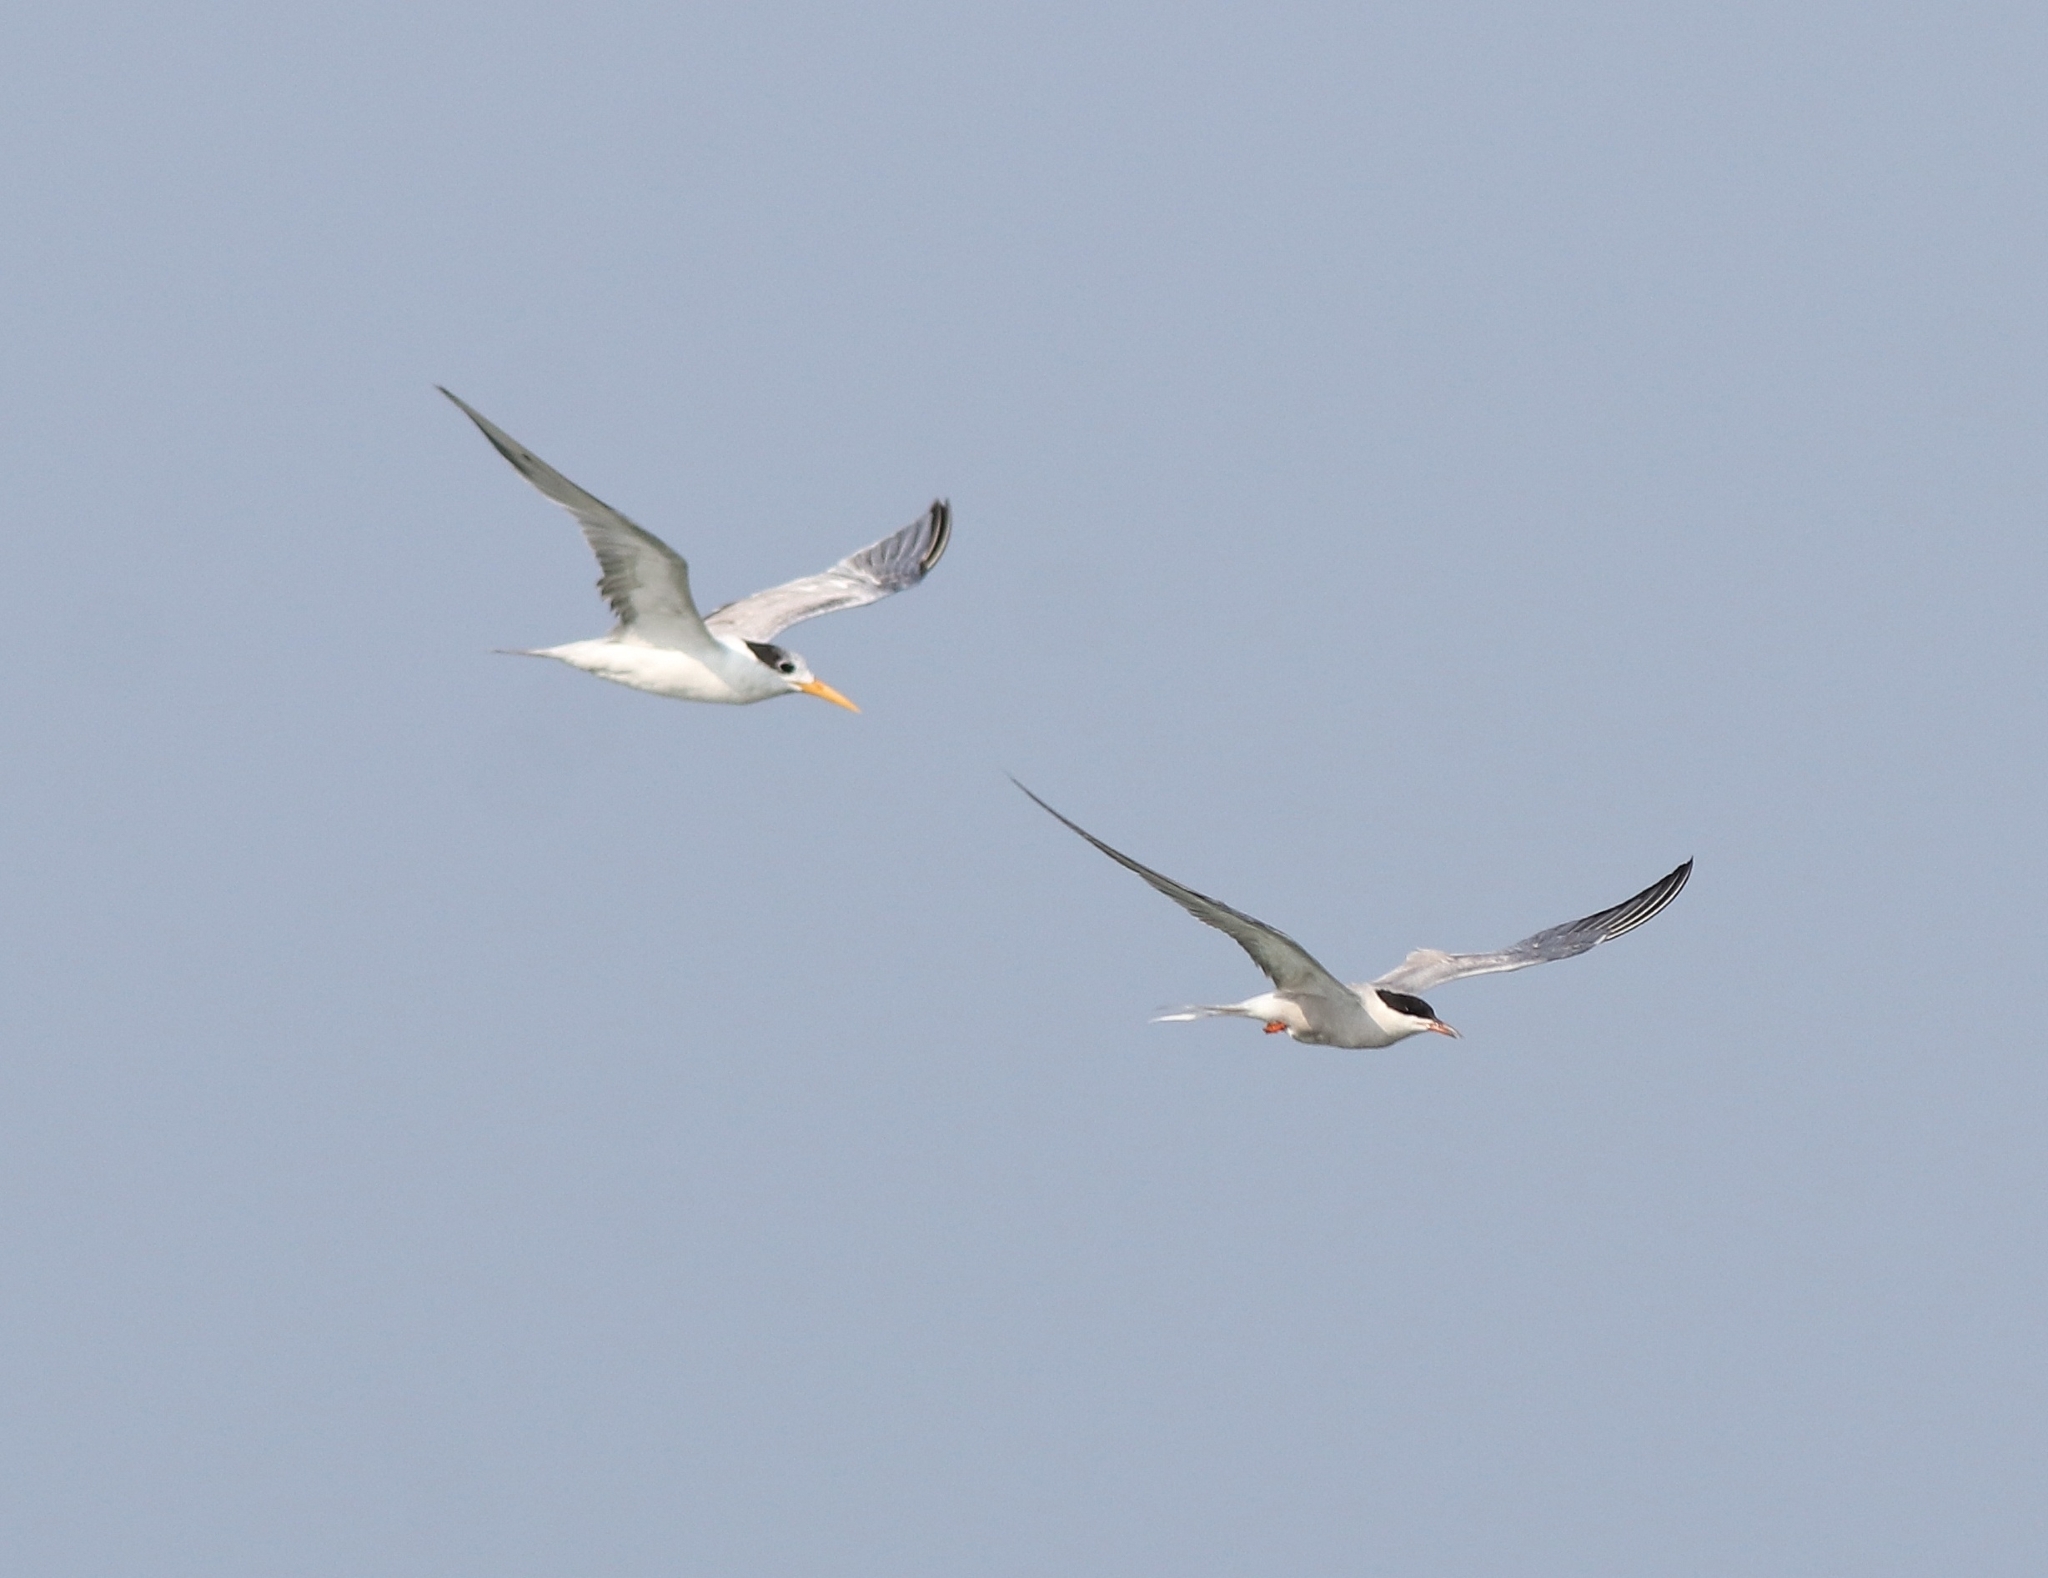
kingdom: Animalia
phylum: Chordata
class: Aves
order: Charadriiformes
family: Laridae
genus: Sterna
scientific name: Sterna hirundo
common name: Common tern
